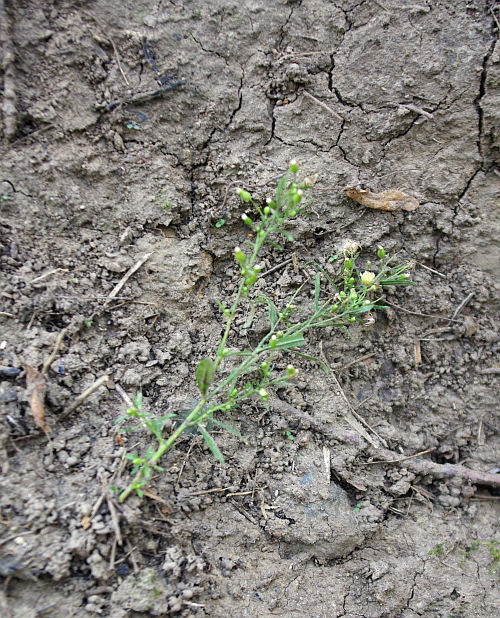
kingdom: Plantae
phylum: Tracheophyta
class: Magnoliopsida
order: Asterales
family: Asteraceae
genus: Erigeron
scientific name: Erigeron canadensis
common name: Canadian fleabane
